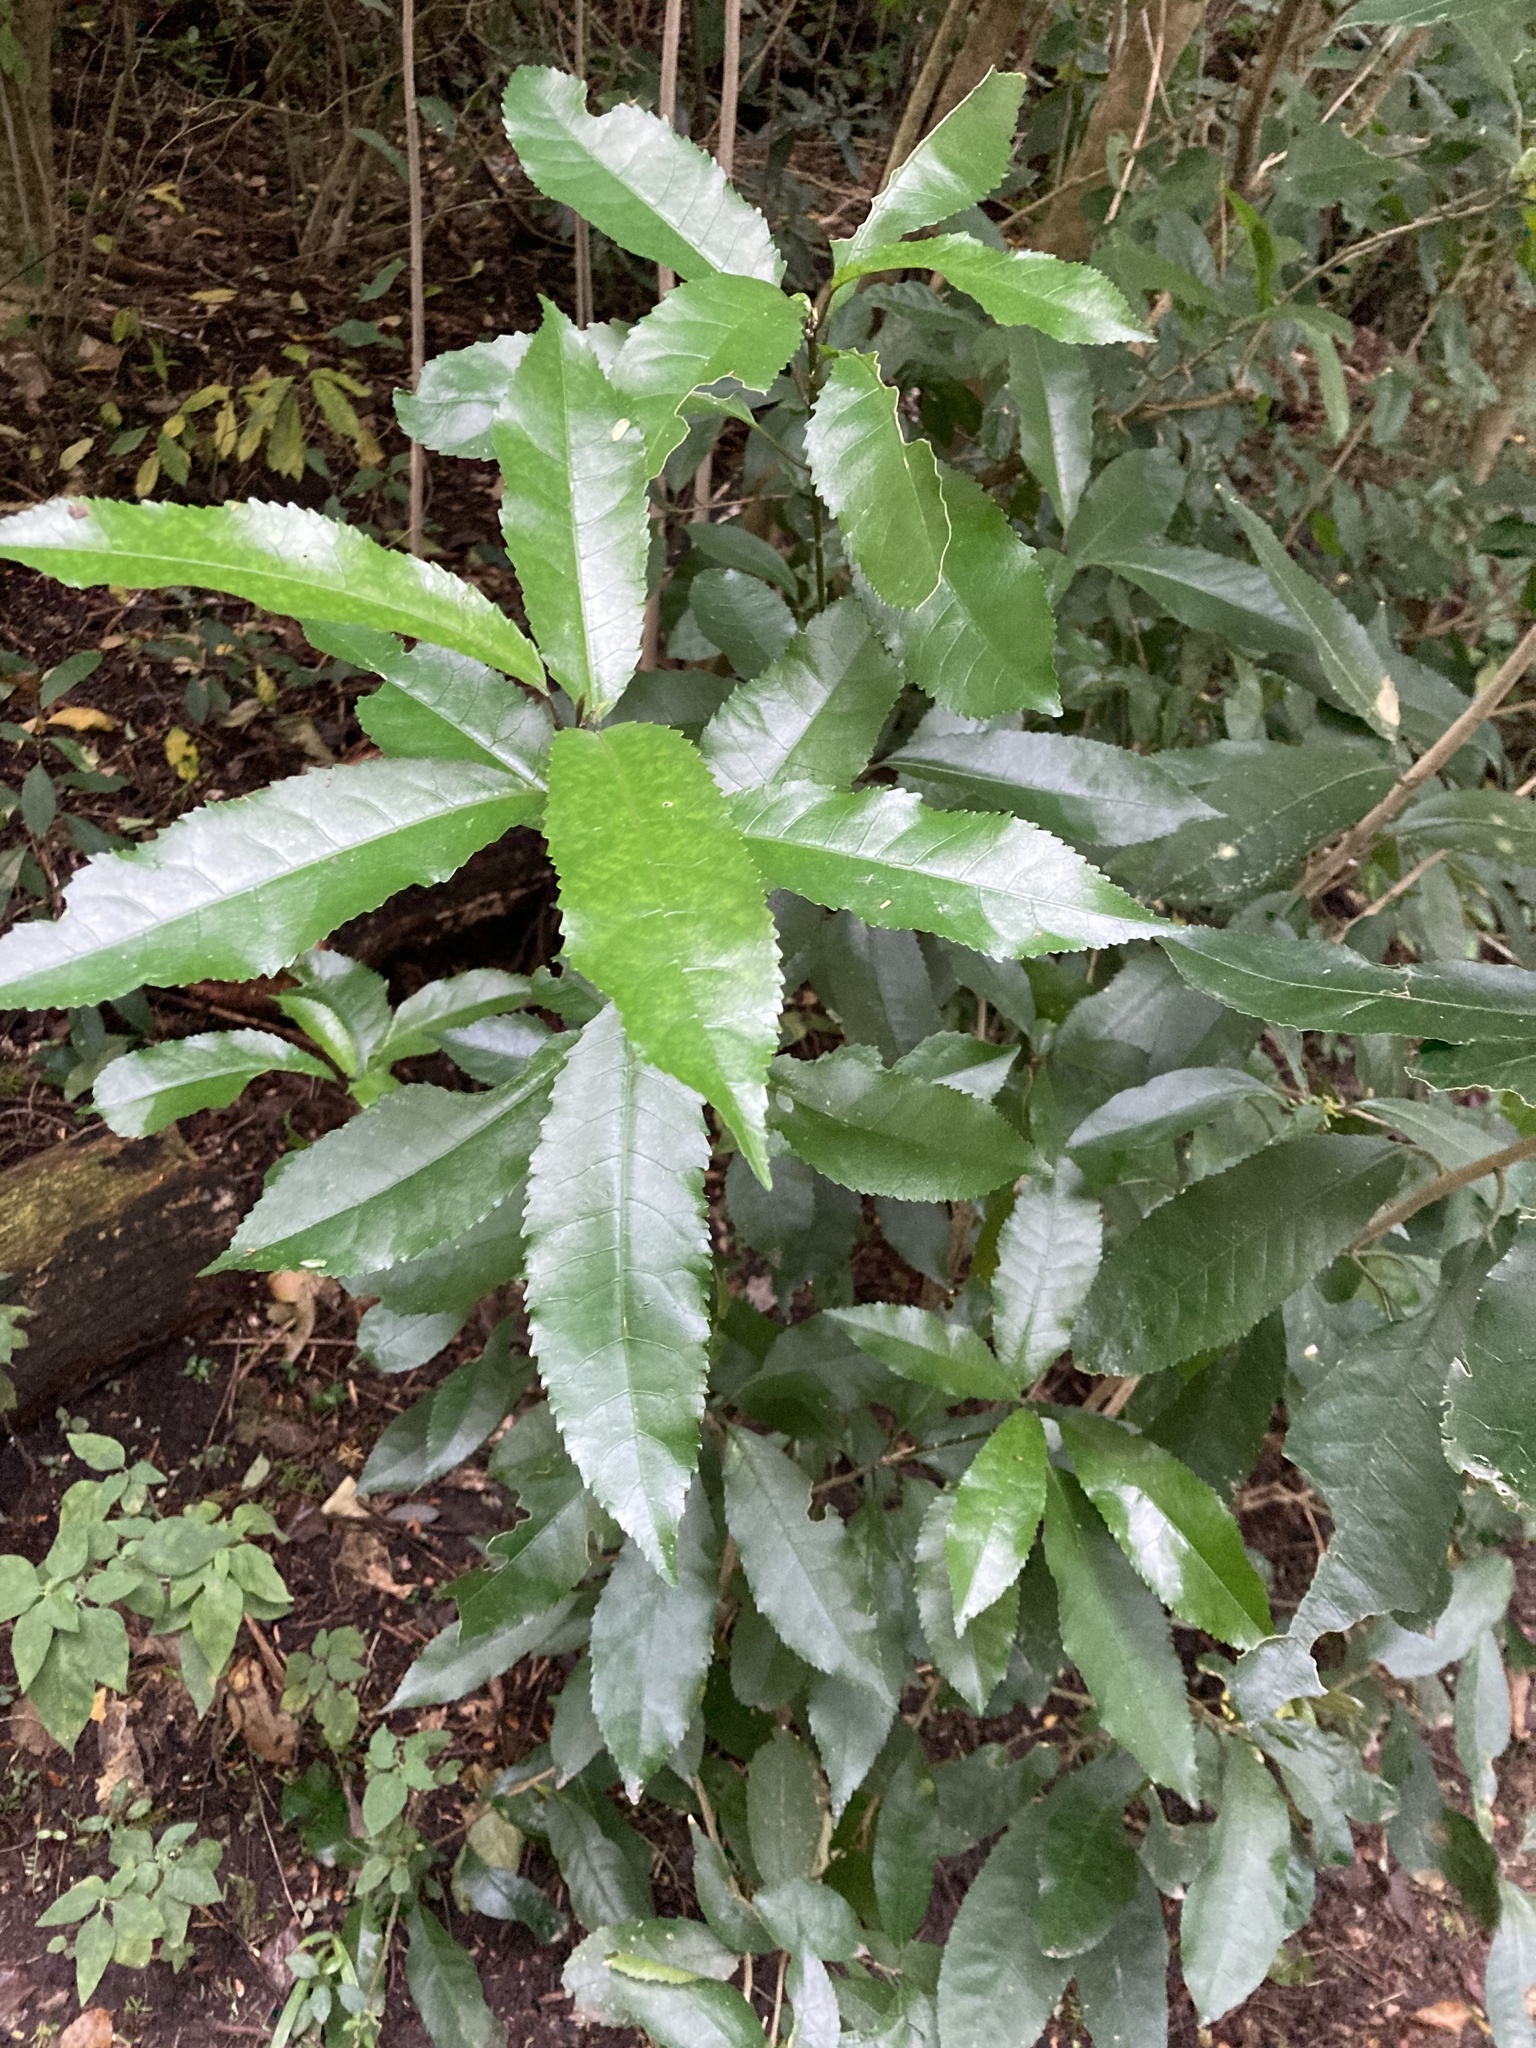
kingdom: Plantae
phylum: Tracheophyta
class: Magnoliopsida
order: Malpighiales
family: Violaceae
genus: Melicytus
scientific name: Melicytus ramiflorus
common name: Mahoe
